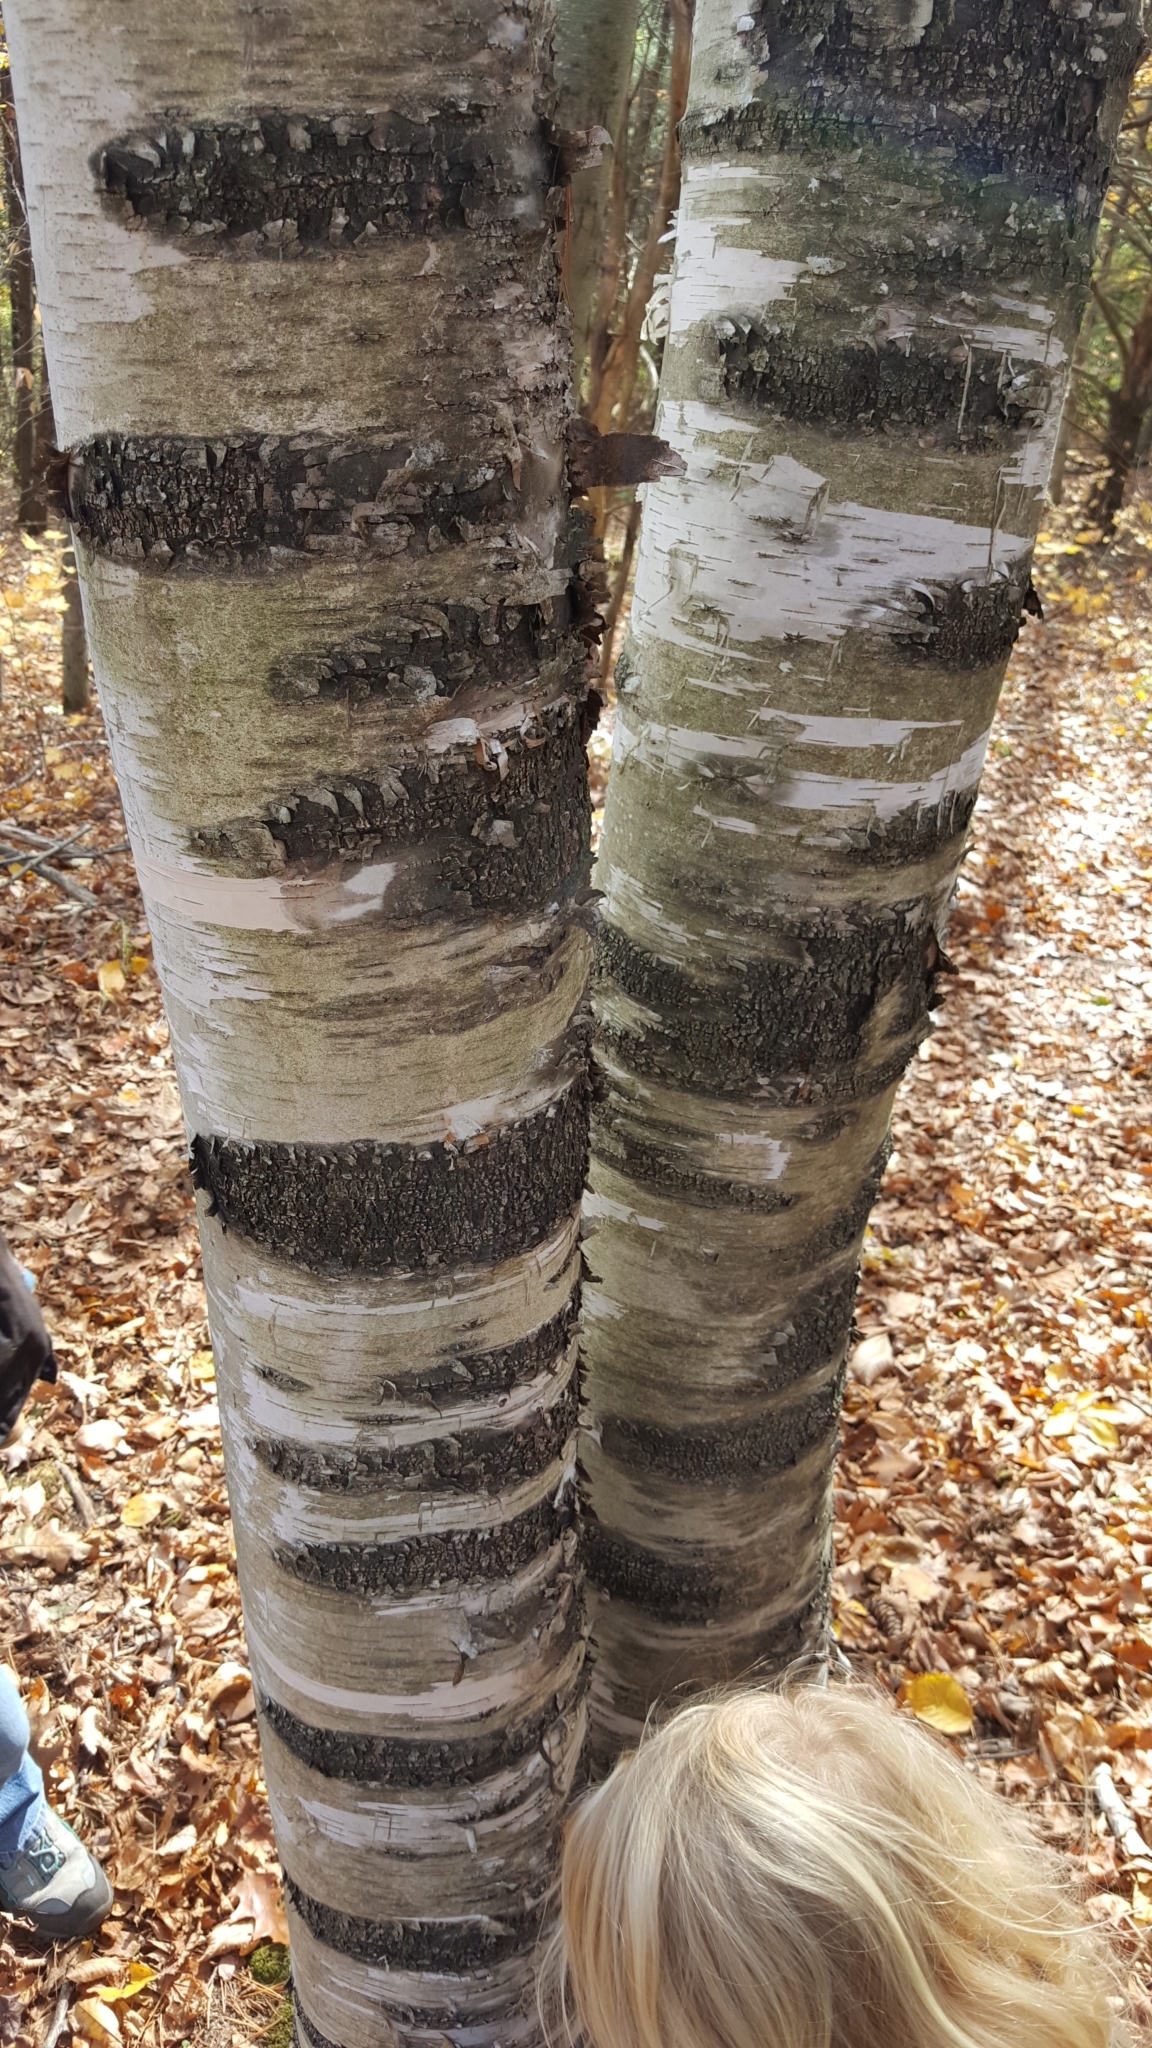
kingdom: Plantae
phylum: Tracheophyta
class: Magnoliopsida
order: Fagales
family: Betulaceae
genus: Betula
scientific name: Betula papyrifera
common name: Paper birch
